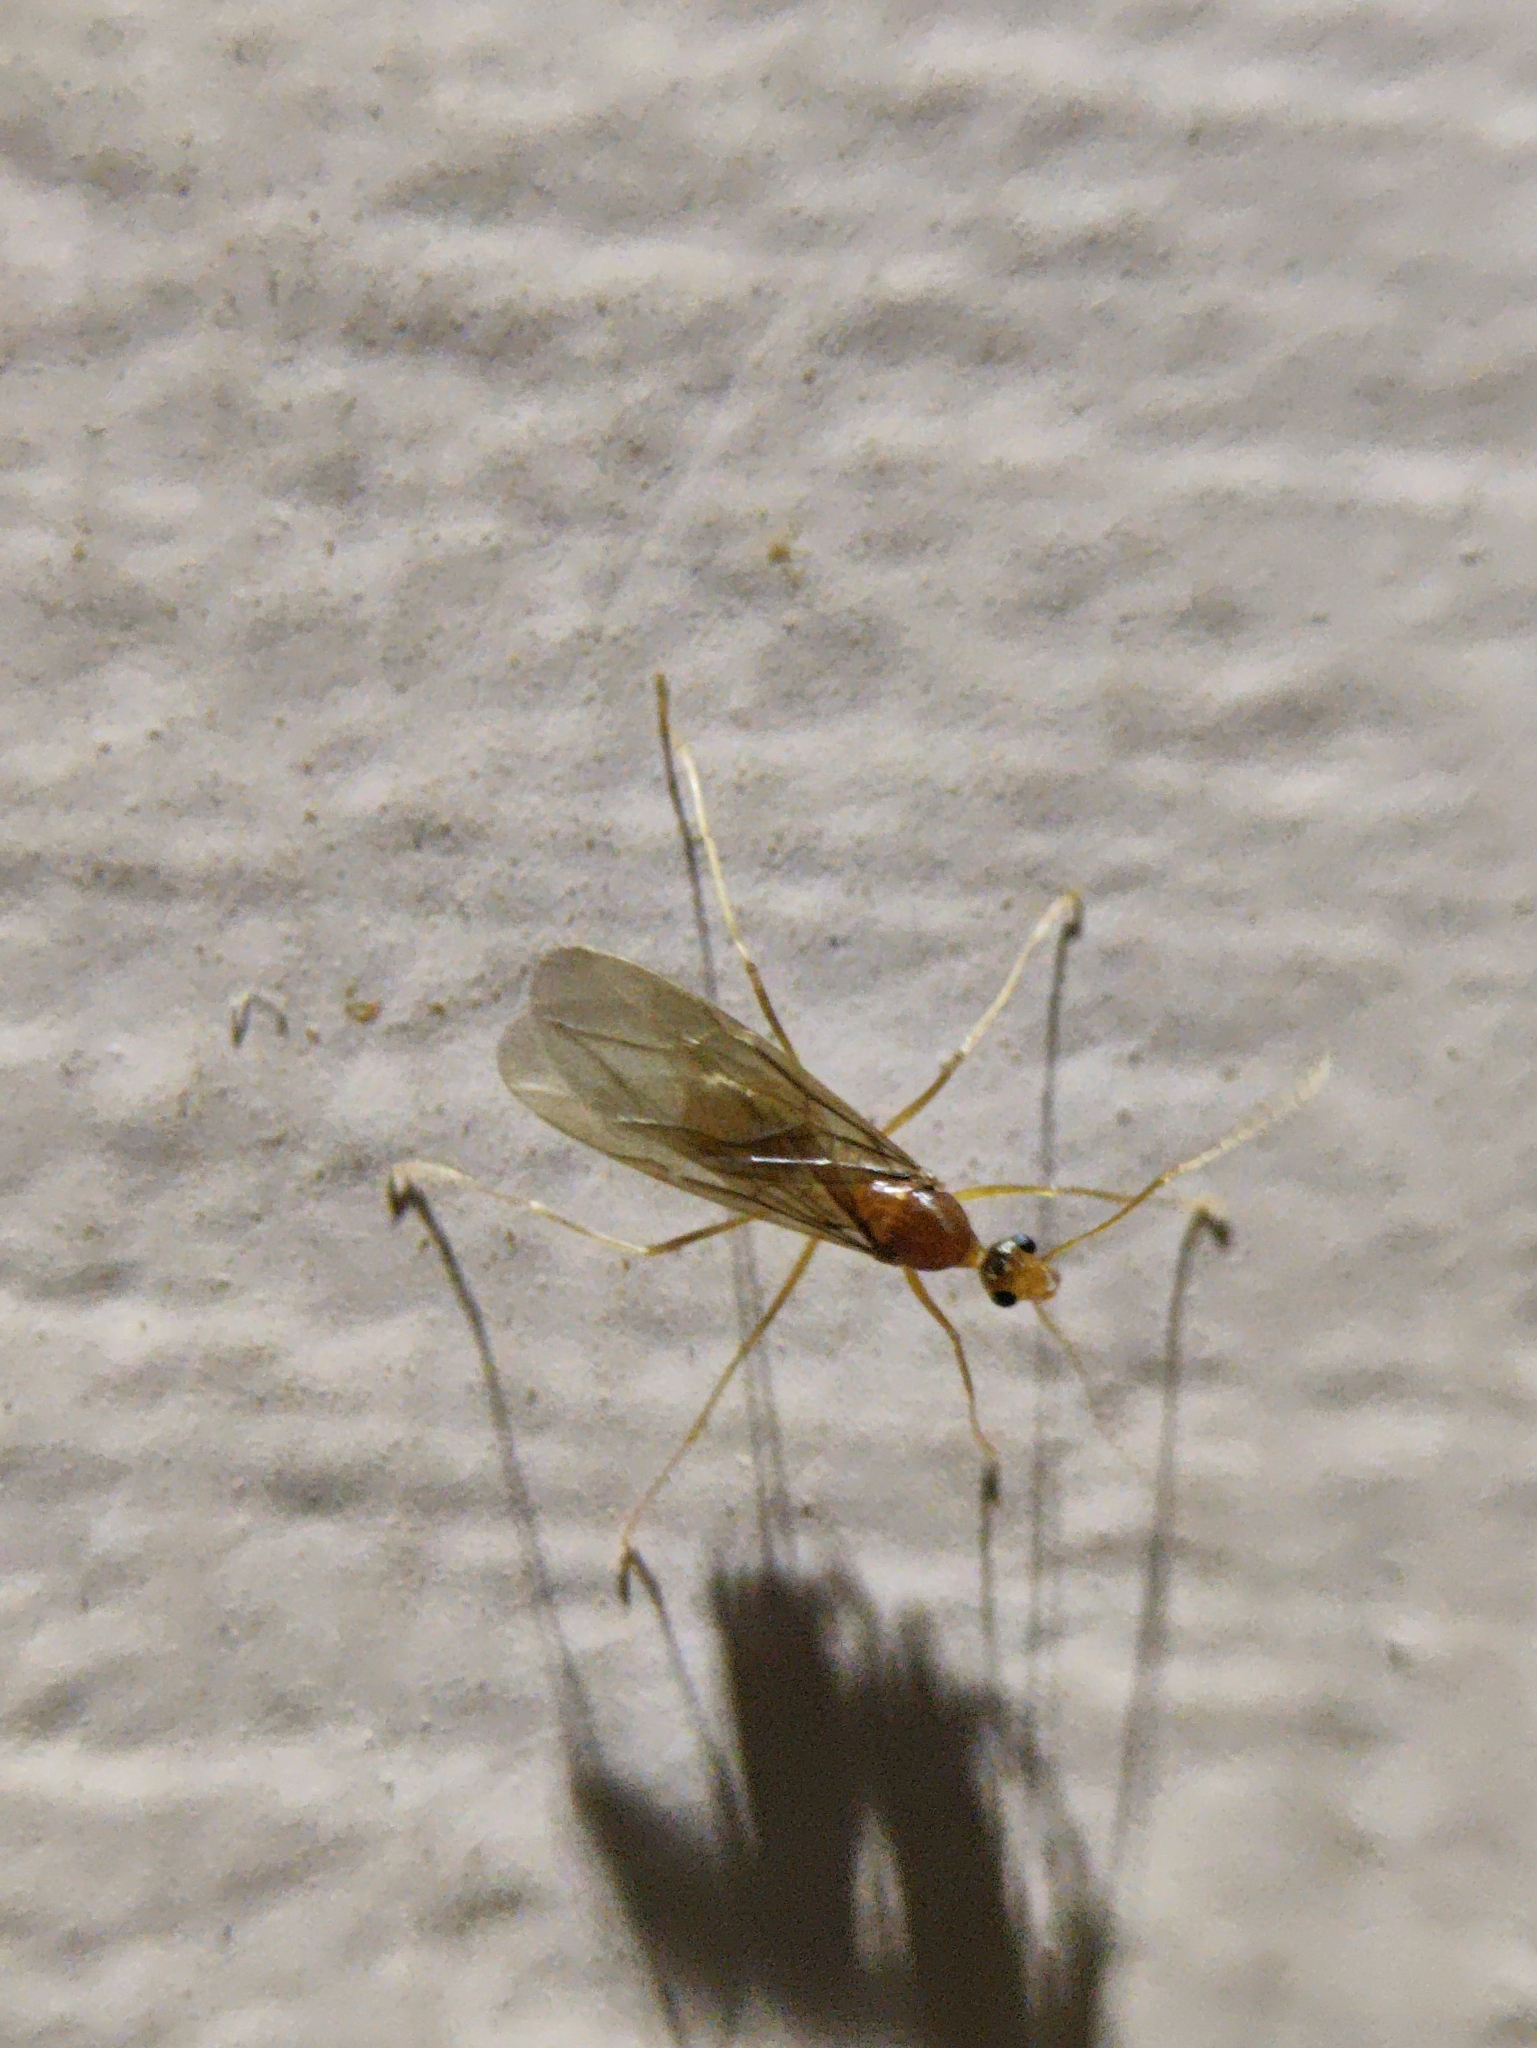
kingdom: Animalia
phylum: Arthropoda
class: Insecta
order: Hymenoptera
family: Formicidae
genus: Anoplolepis
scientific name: Anoplolepis gracilipes
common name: Ant
